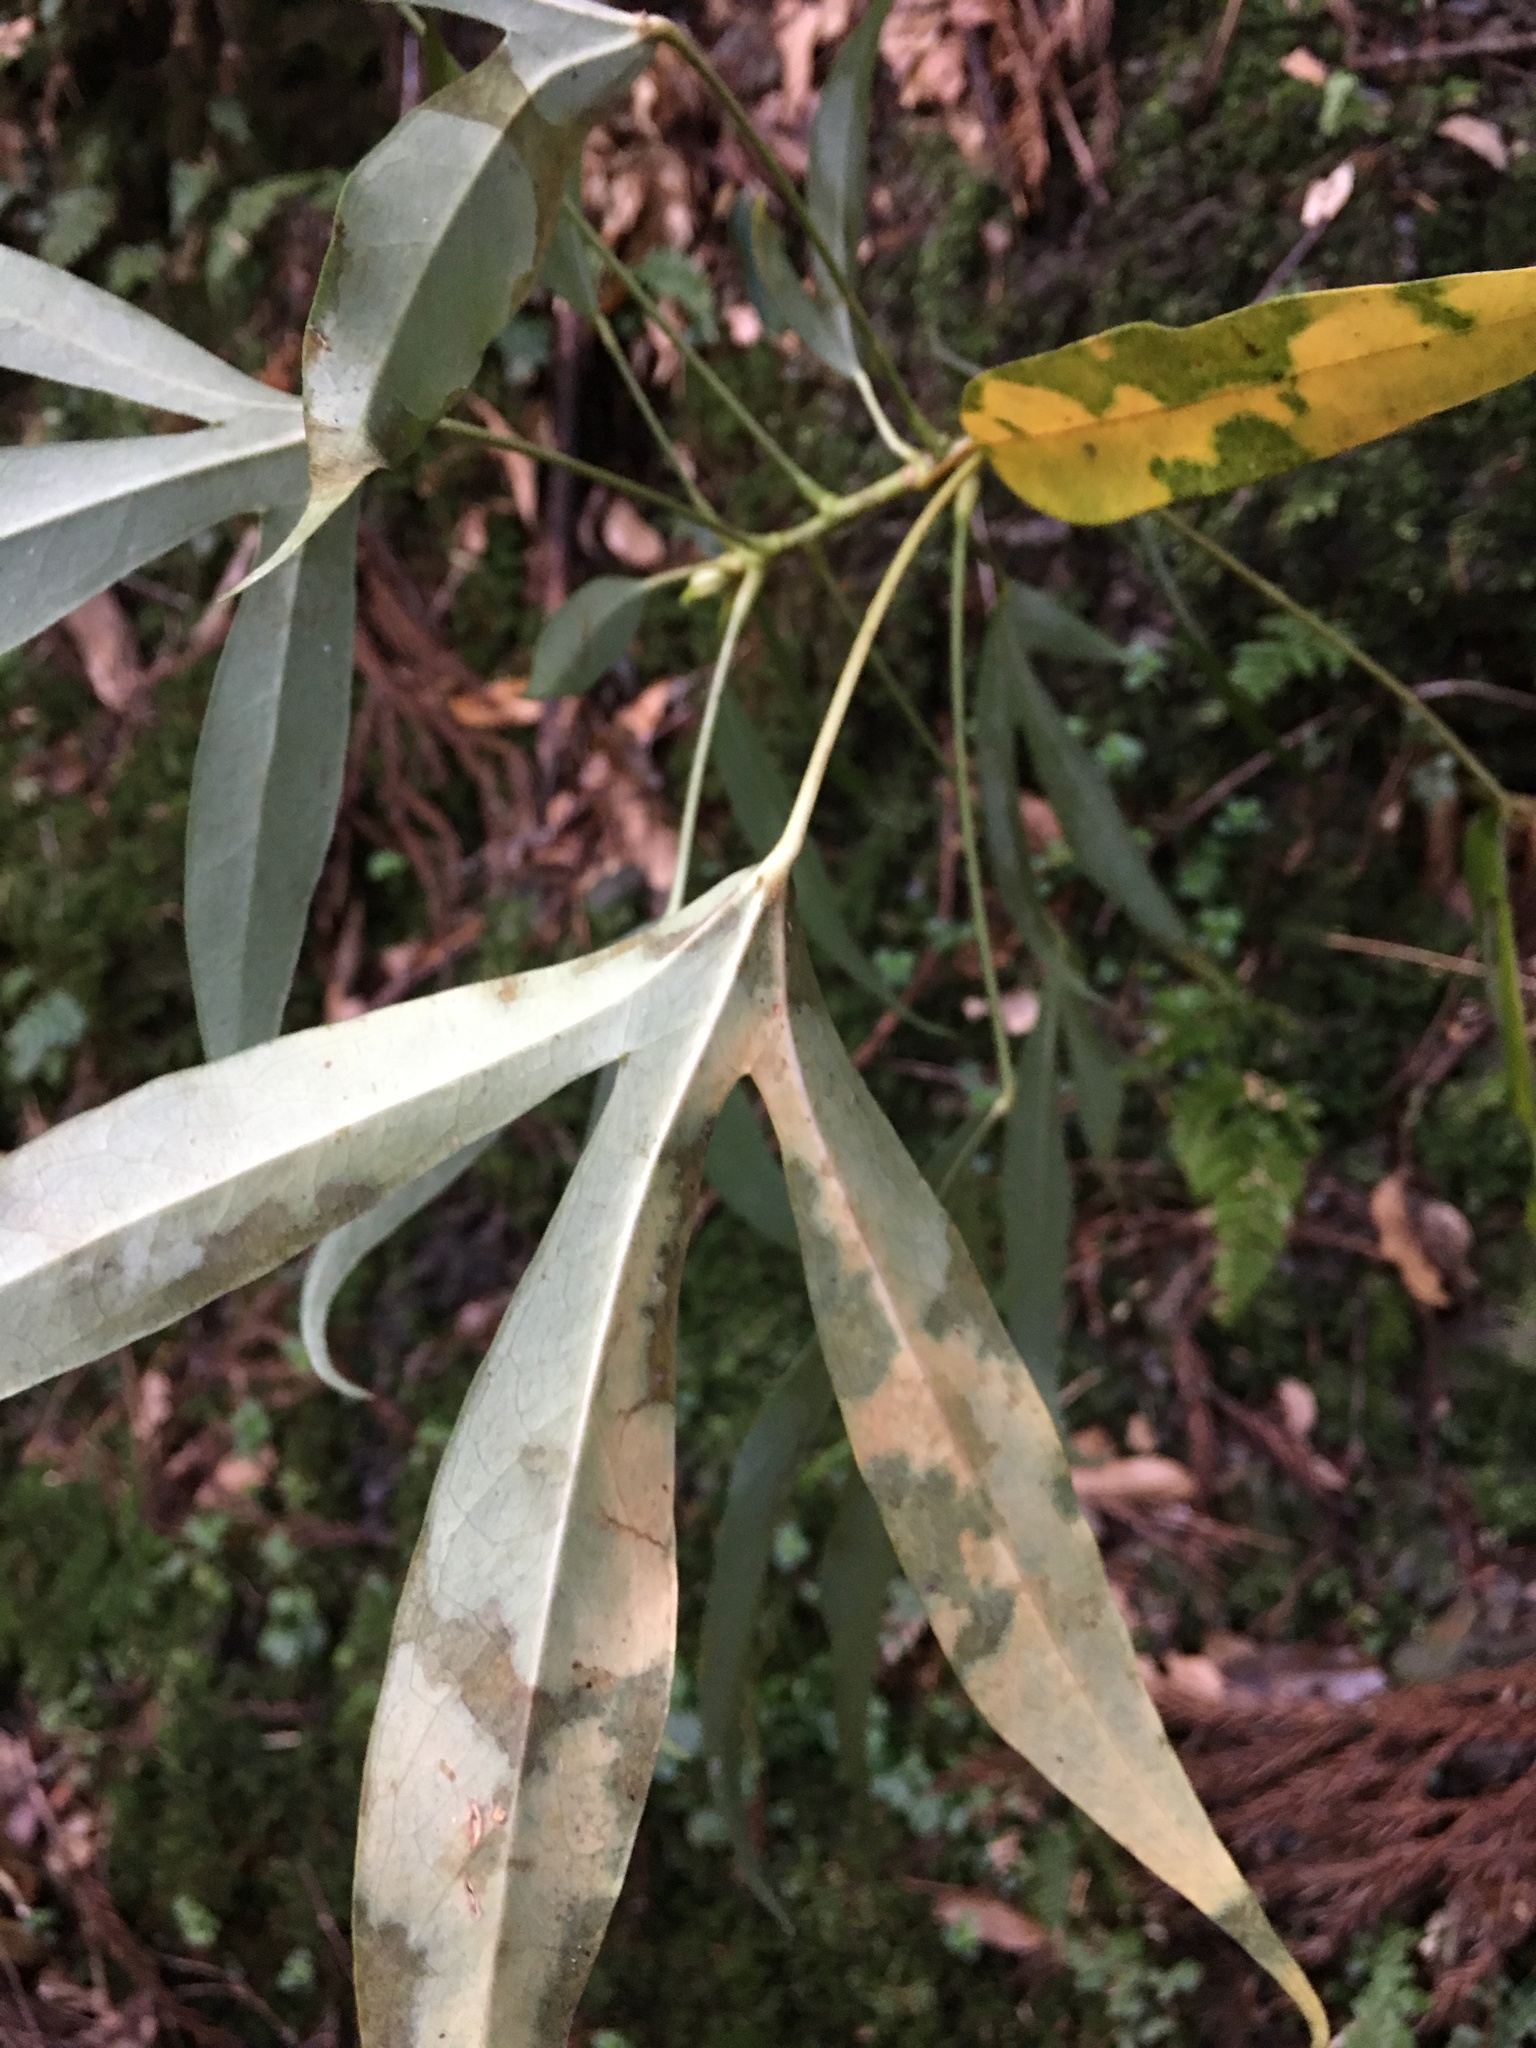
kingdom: Plantae
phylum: Tracheophyta
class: Magnoliopsida
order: Apiales
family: Araliaceae
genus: Dendropanax
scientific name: Dendropanax dentiger
